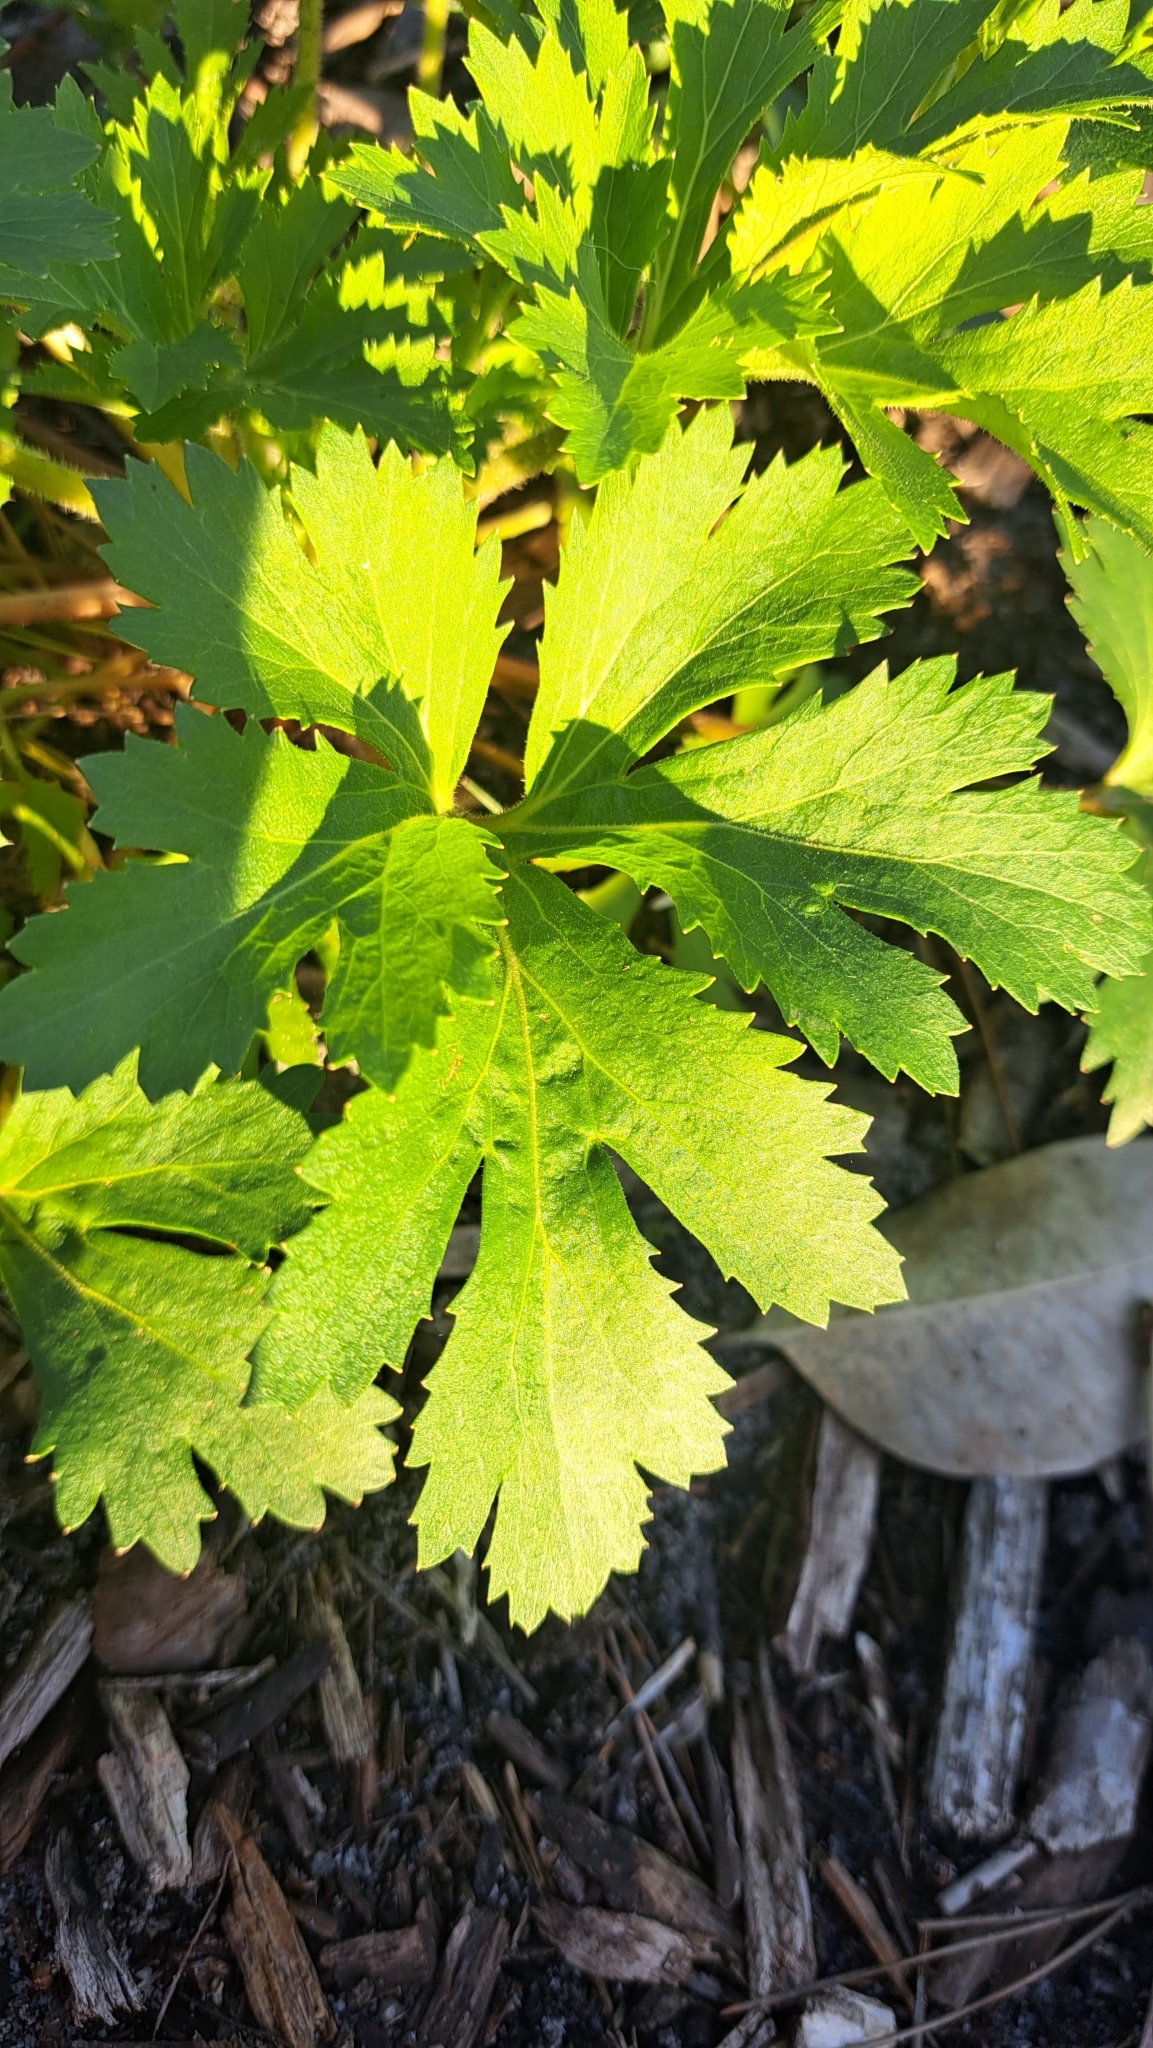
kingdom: Plantae
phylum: Tracheophyta
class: Magnoliopsida
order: Apiales
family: Araliaceae
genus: Trachymene
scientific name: Trachymene composita
